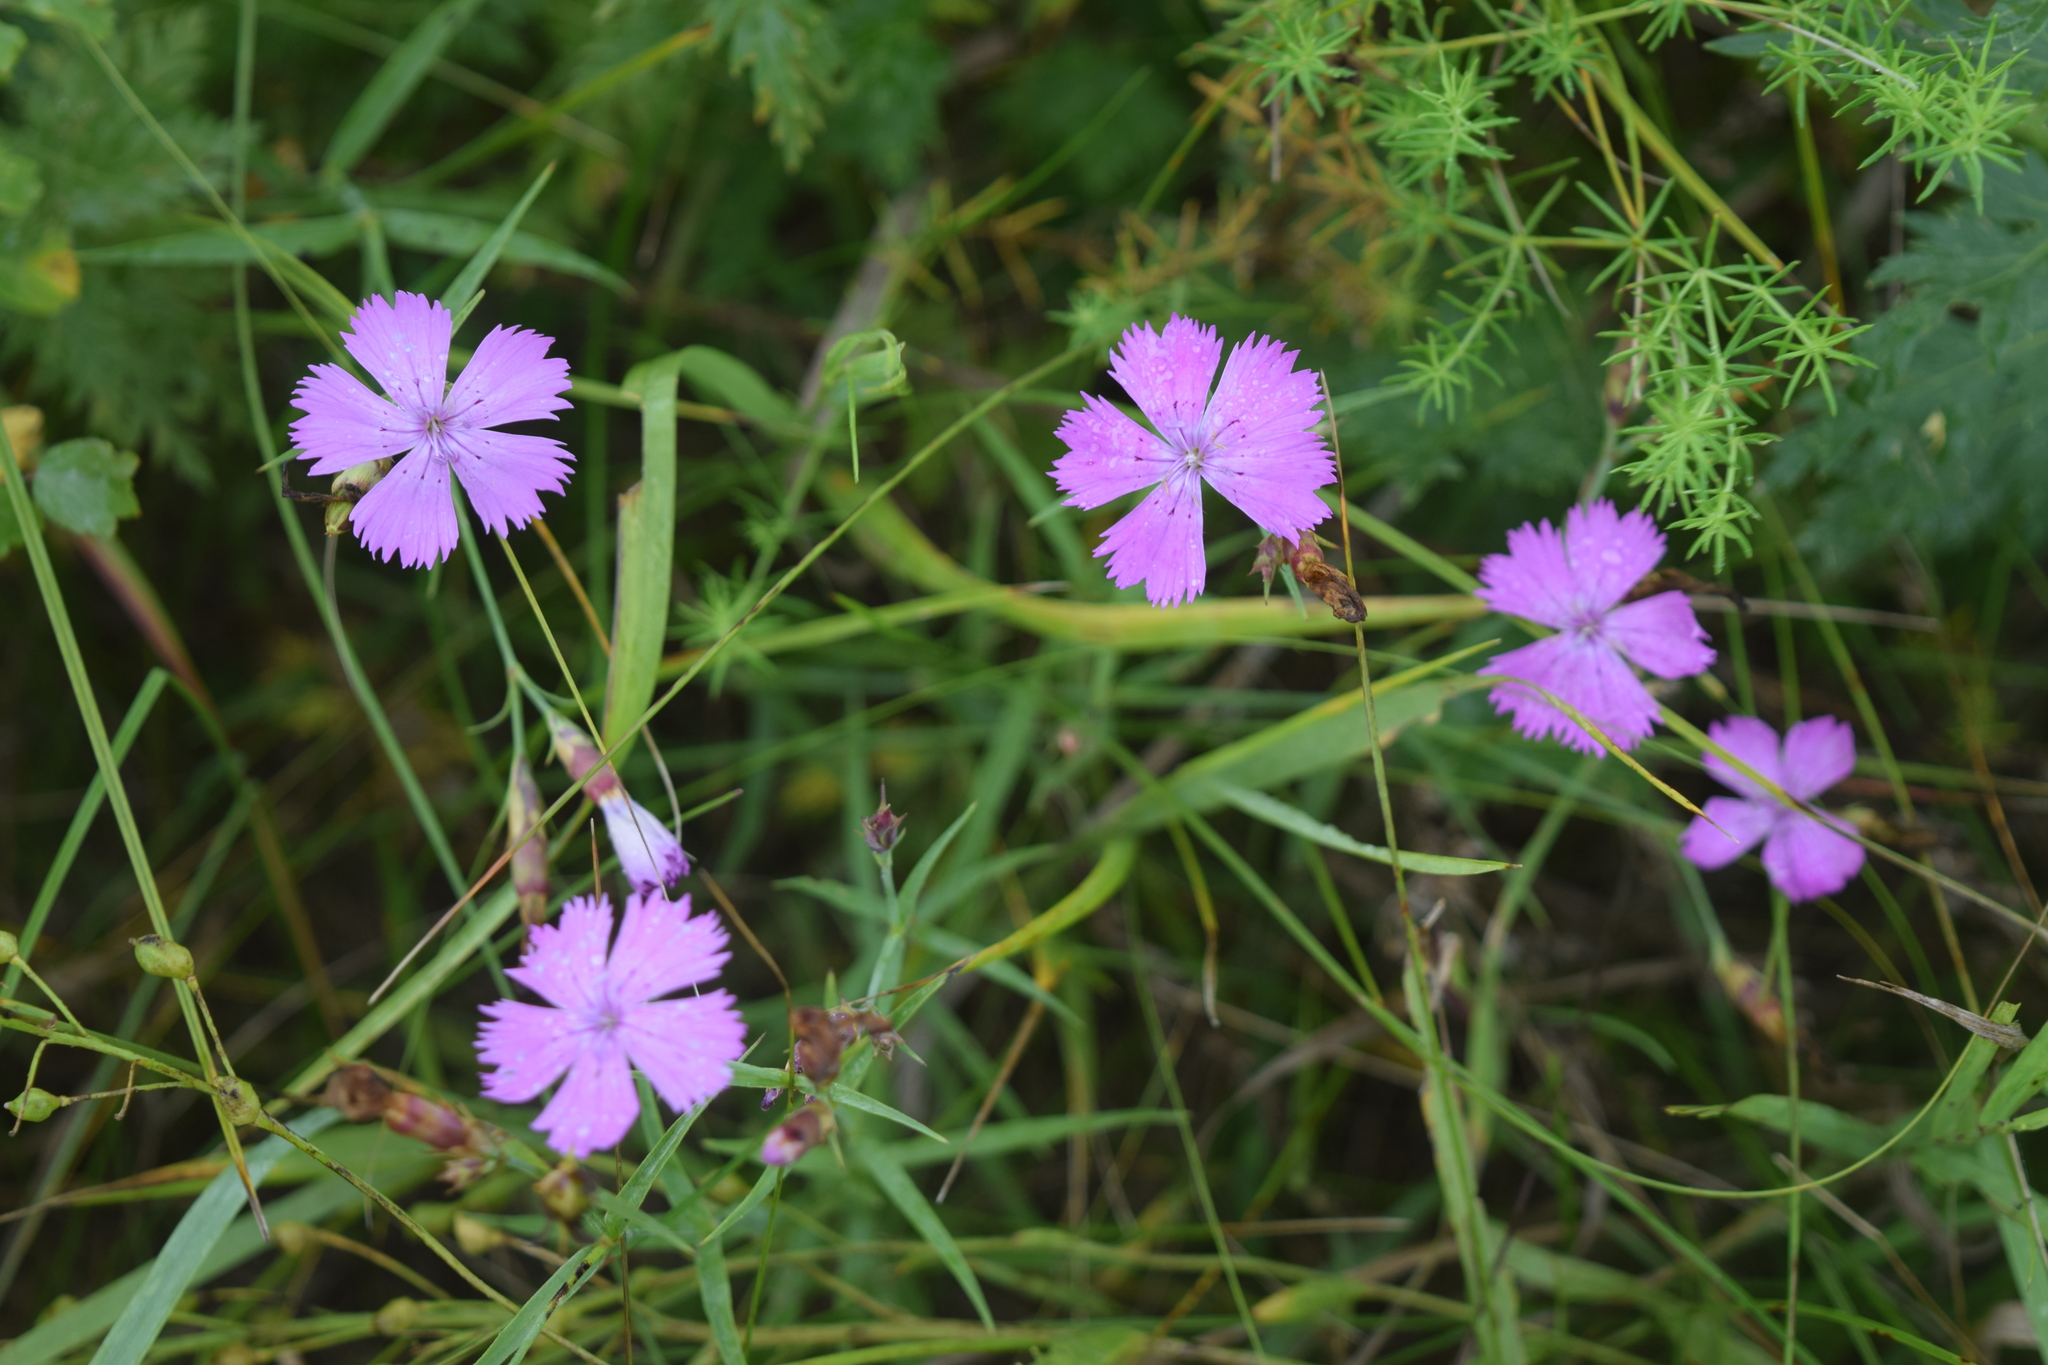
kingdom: Plantae
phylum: Tracheophyta
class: Magnoliopsida
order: Caryophyllales
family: Caryophyllaceae
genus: Dianthus
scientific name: Dianthus chinensis
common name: Rainbow pink
